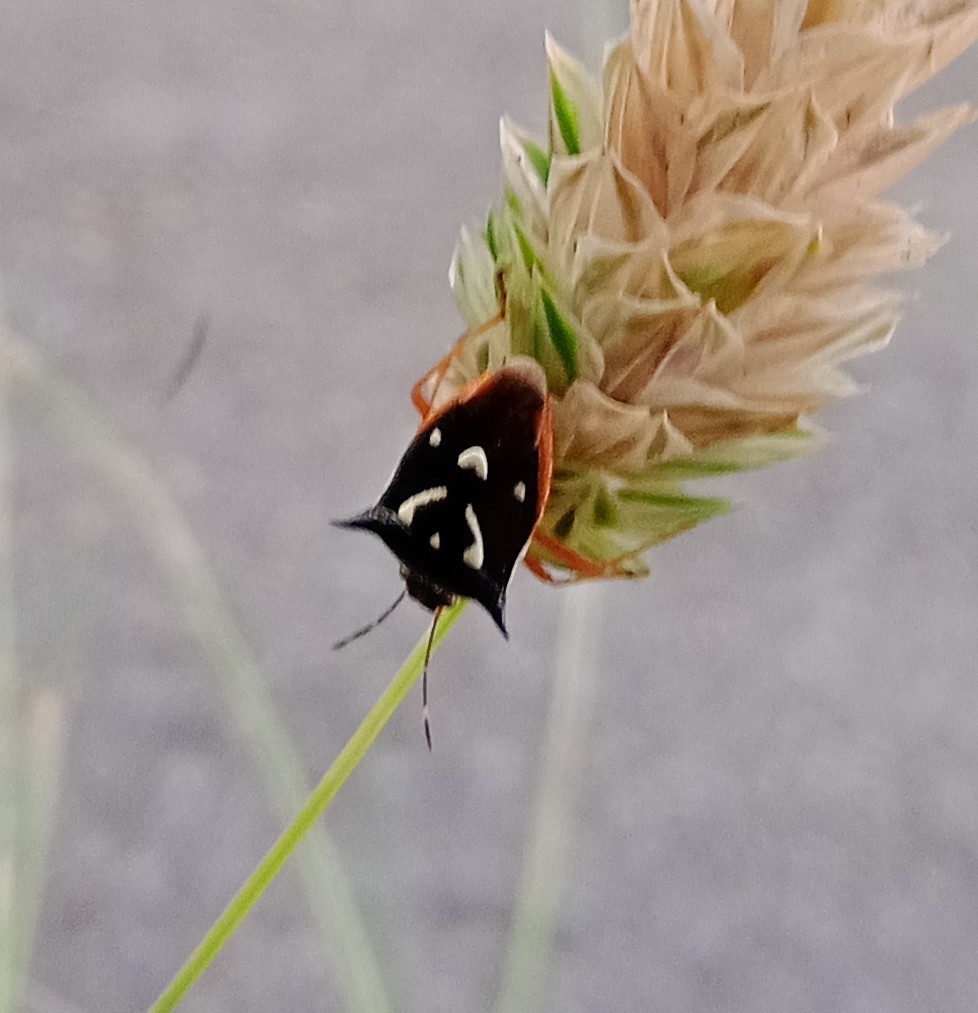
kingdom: Animalia
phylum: Arthropoda
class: Insecta
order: Hemiptera
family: Pentatomidae
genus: Mormidea
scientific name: Mormidea v-luteum
